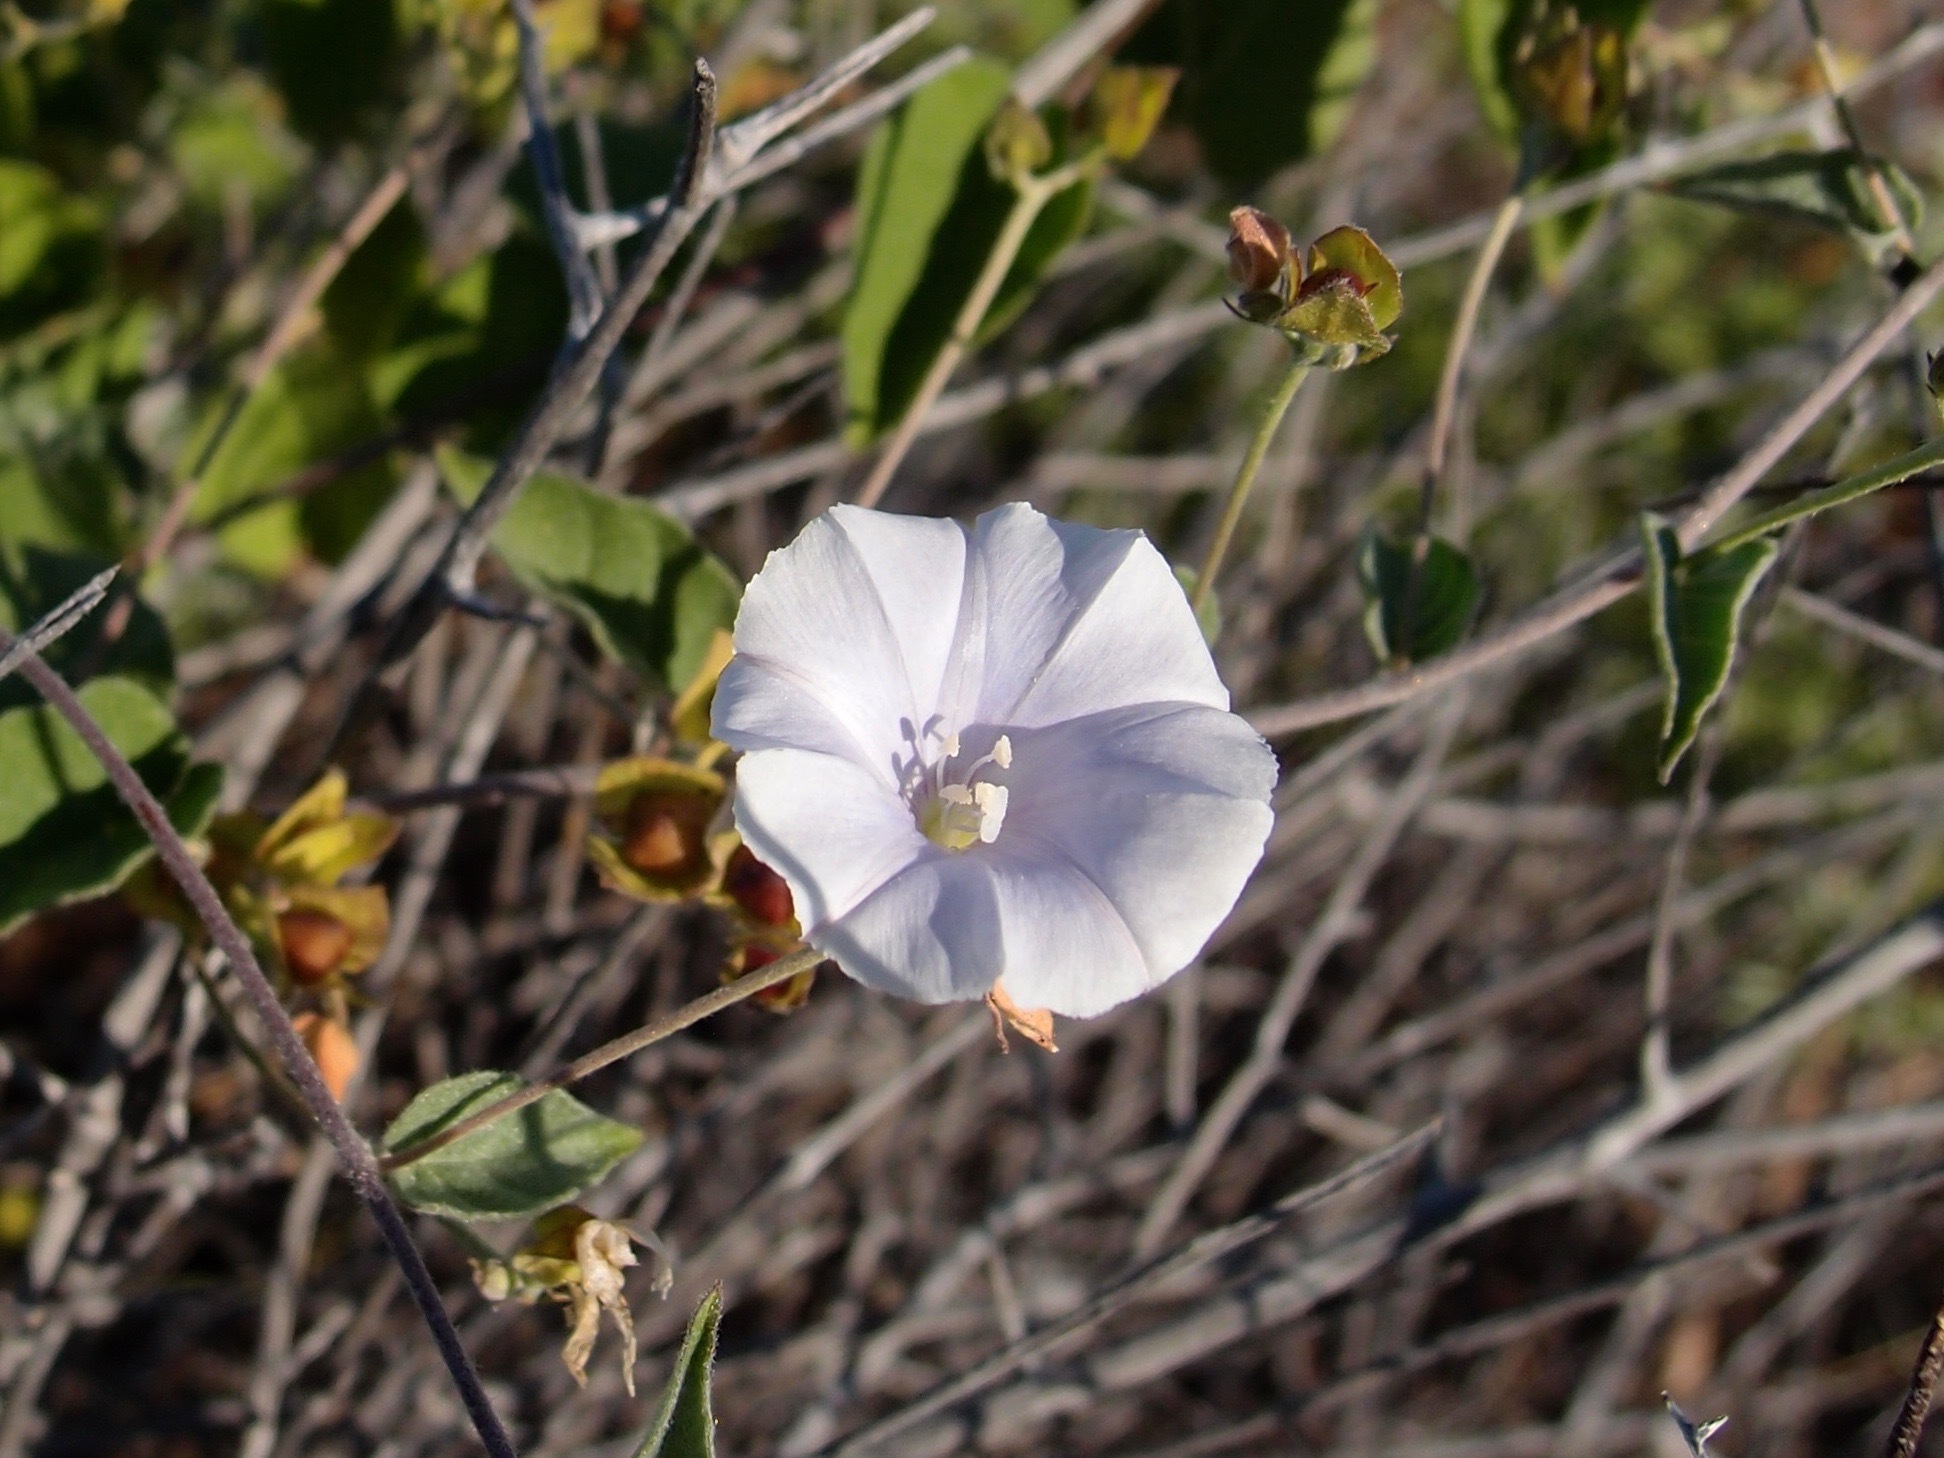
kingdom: Plantae
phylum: Tracheophyta
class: Magnoliopsida
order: Solanales
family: Convolvulaceae
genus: Jacquemontia
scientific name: Jacquemontia pringlei
